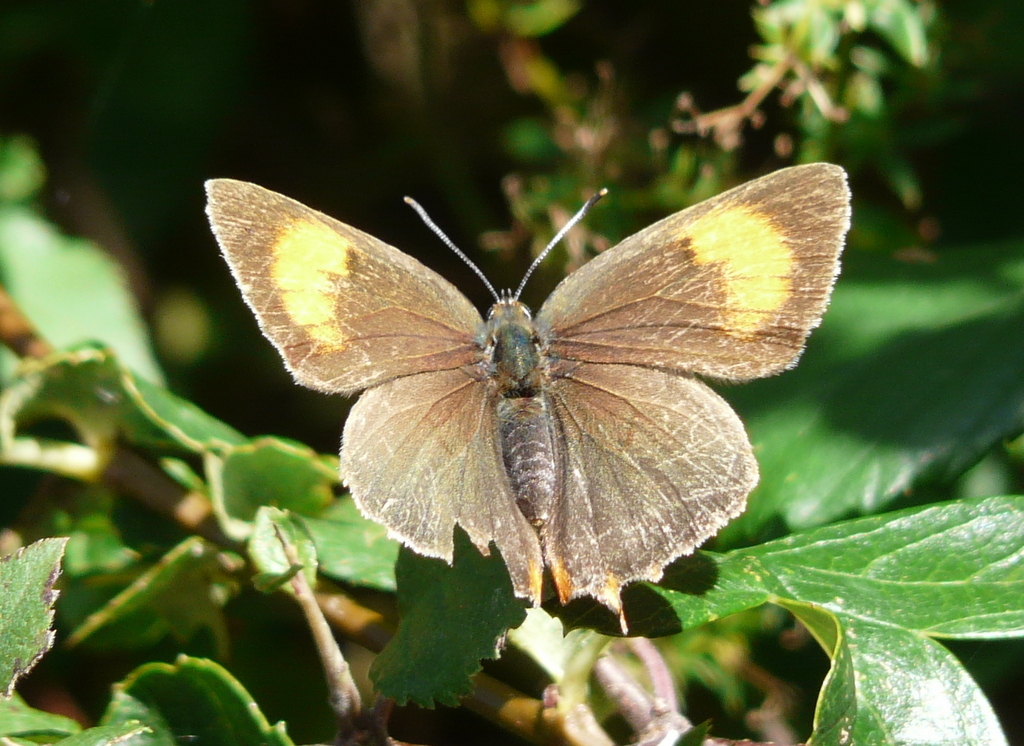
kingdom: Animalia
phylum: Arthropoda
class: Insecta
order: Lepidoptera
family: Lycaenidae
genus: Thecla
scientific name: Thecla betulae
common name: Brown hairstreak
